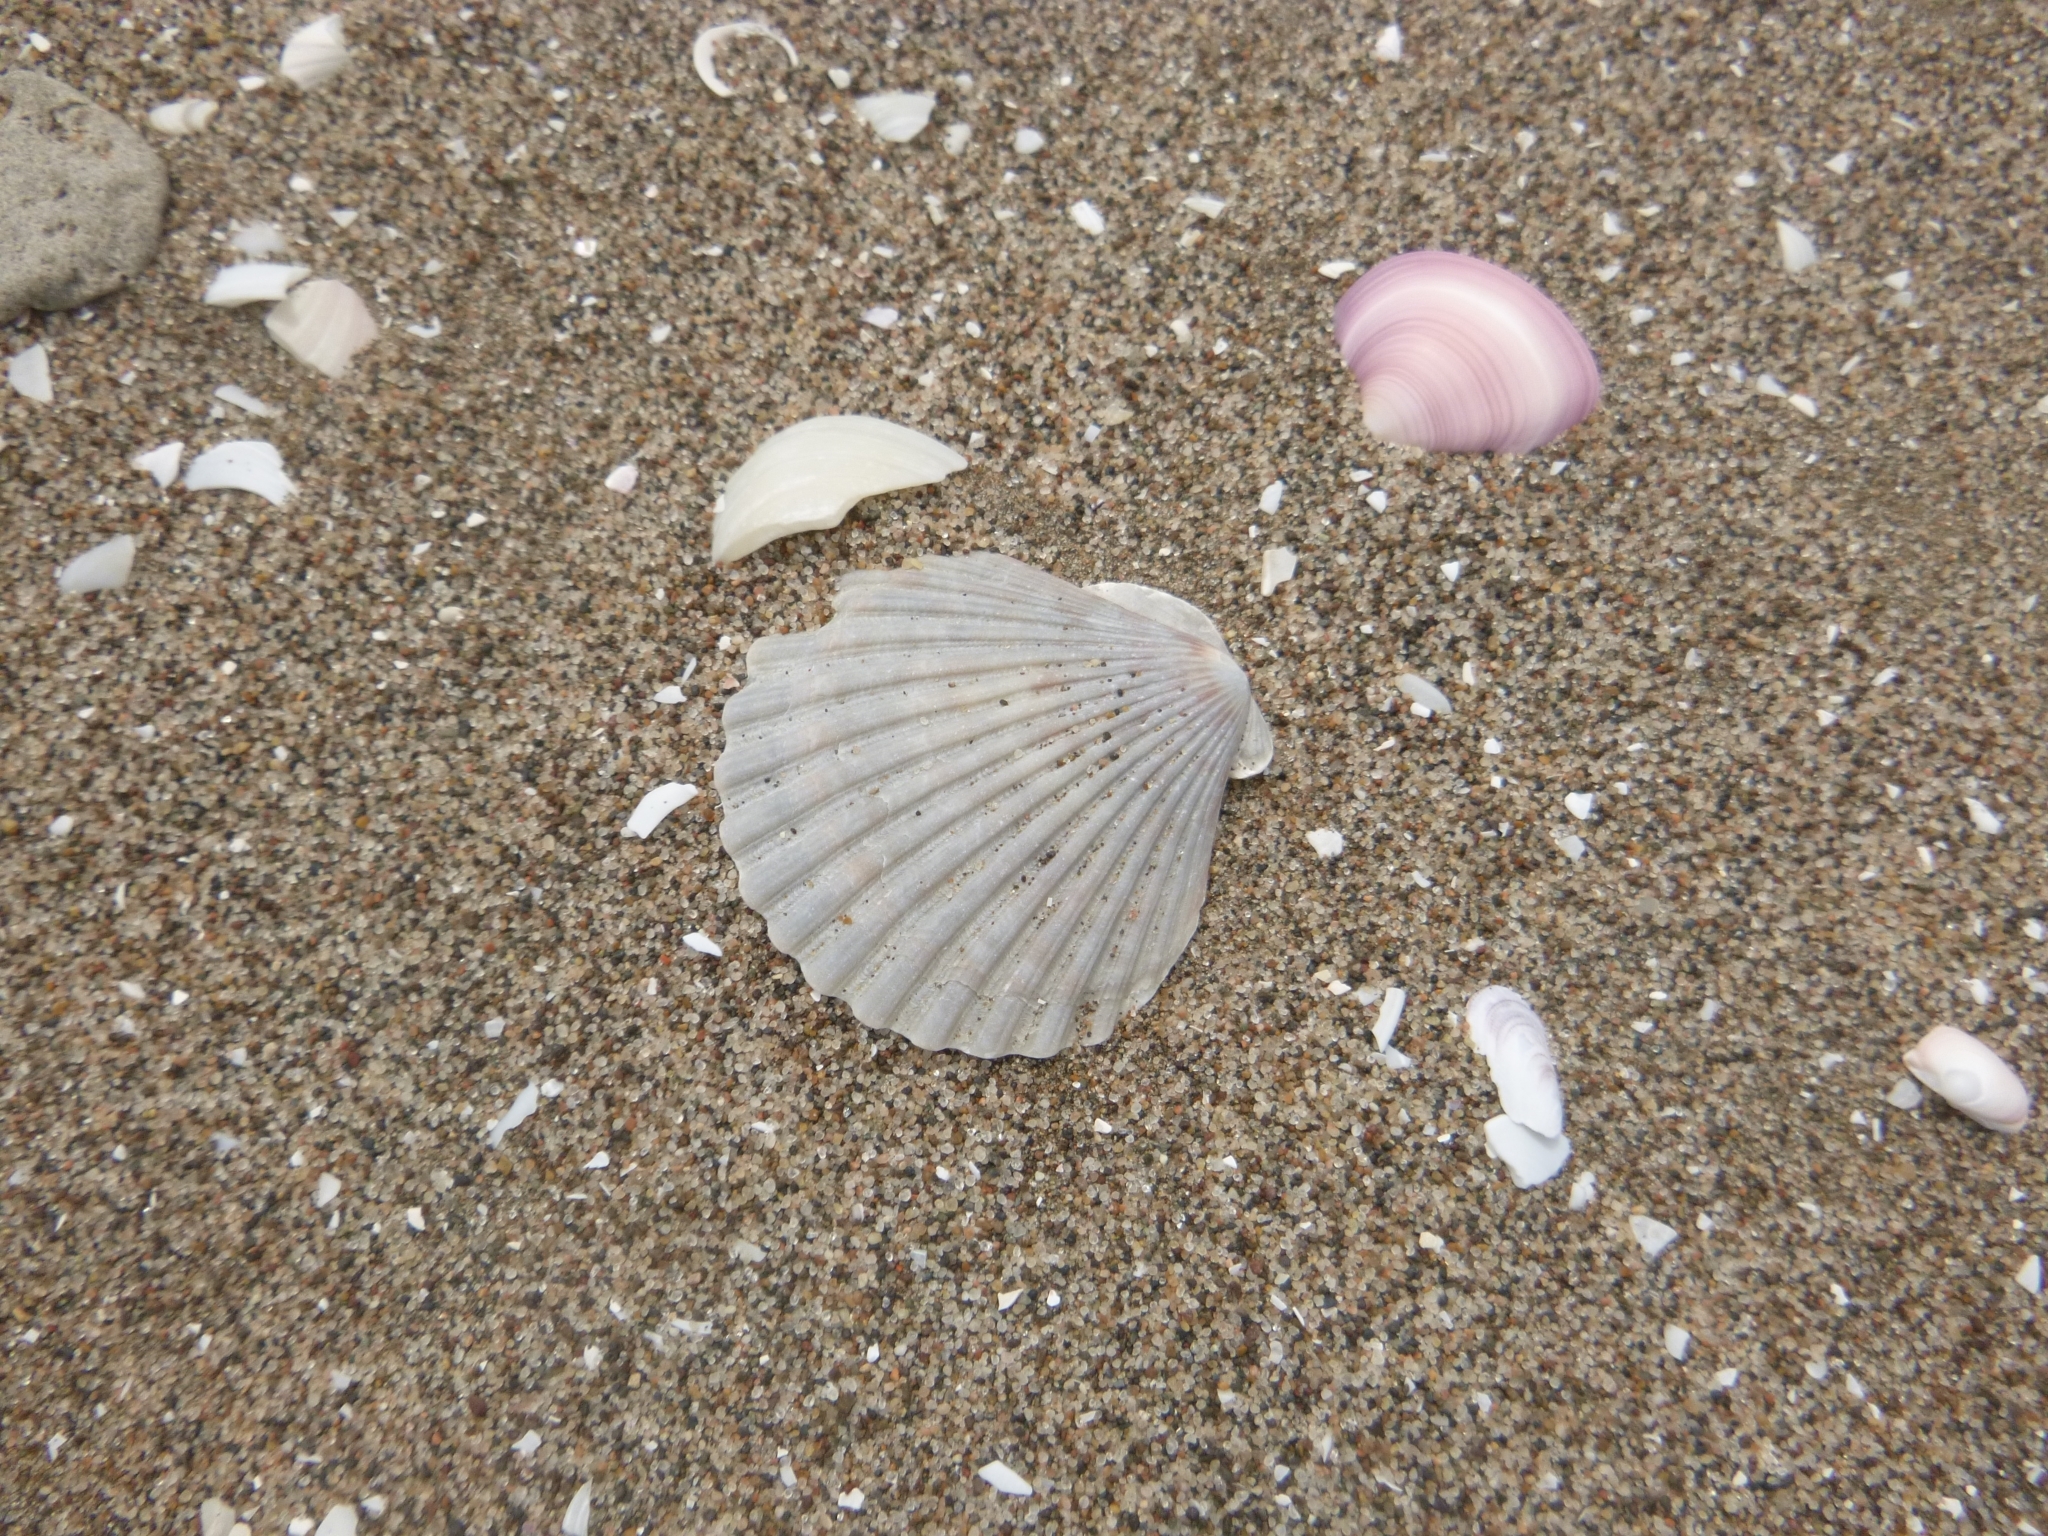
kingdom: Animalia
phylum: Mollusca
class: Bivalvia
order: Pectinida
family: Pectinidae
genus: Aequipecten
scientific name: Aequipecten tehuelchus
